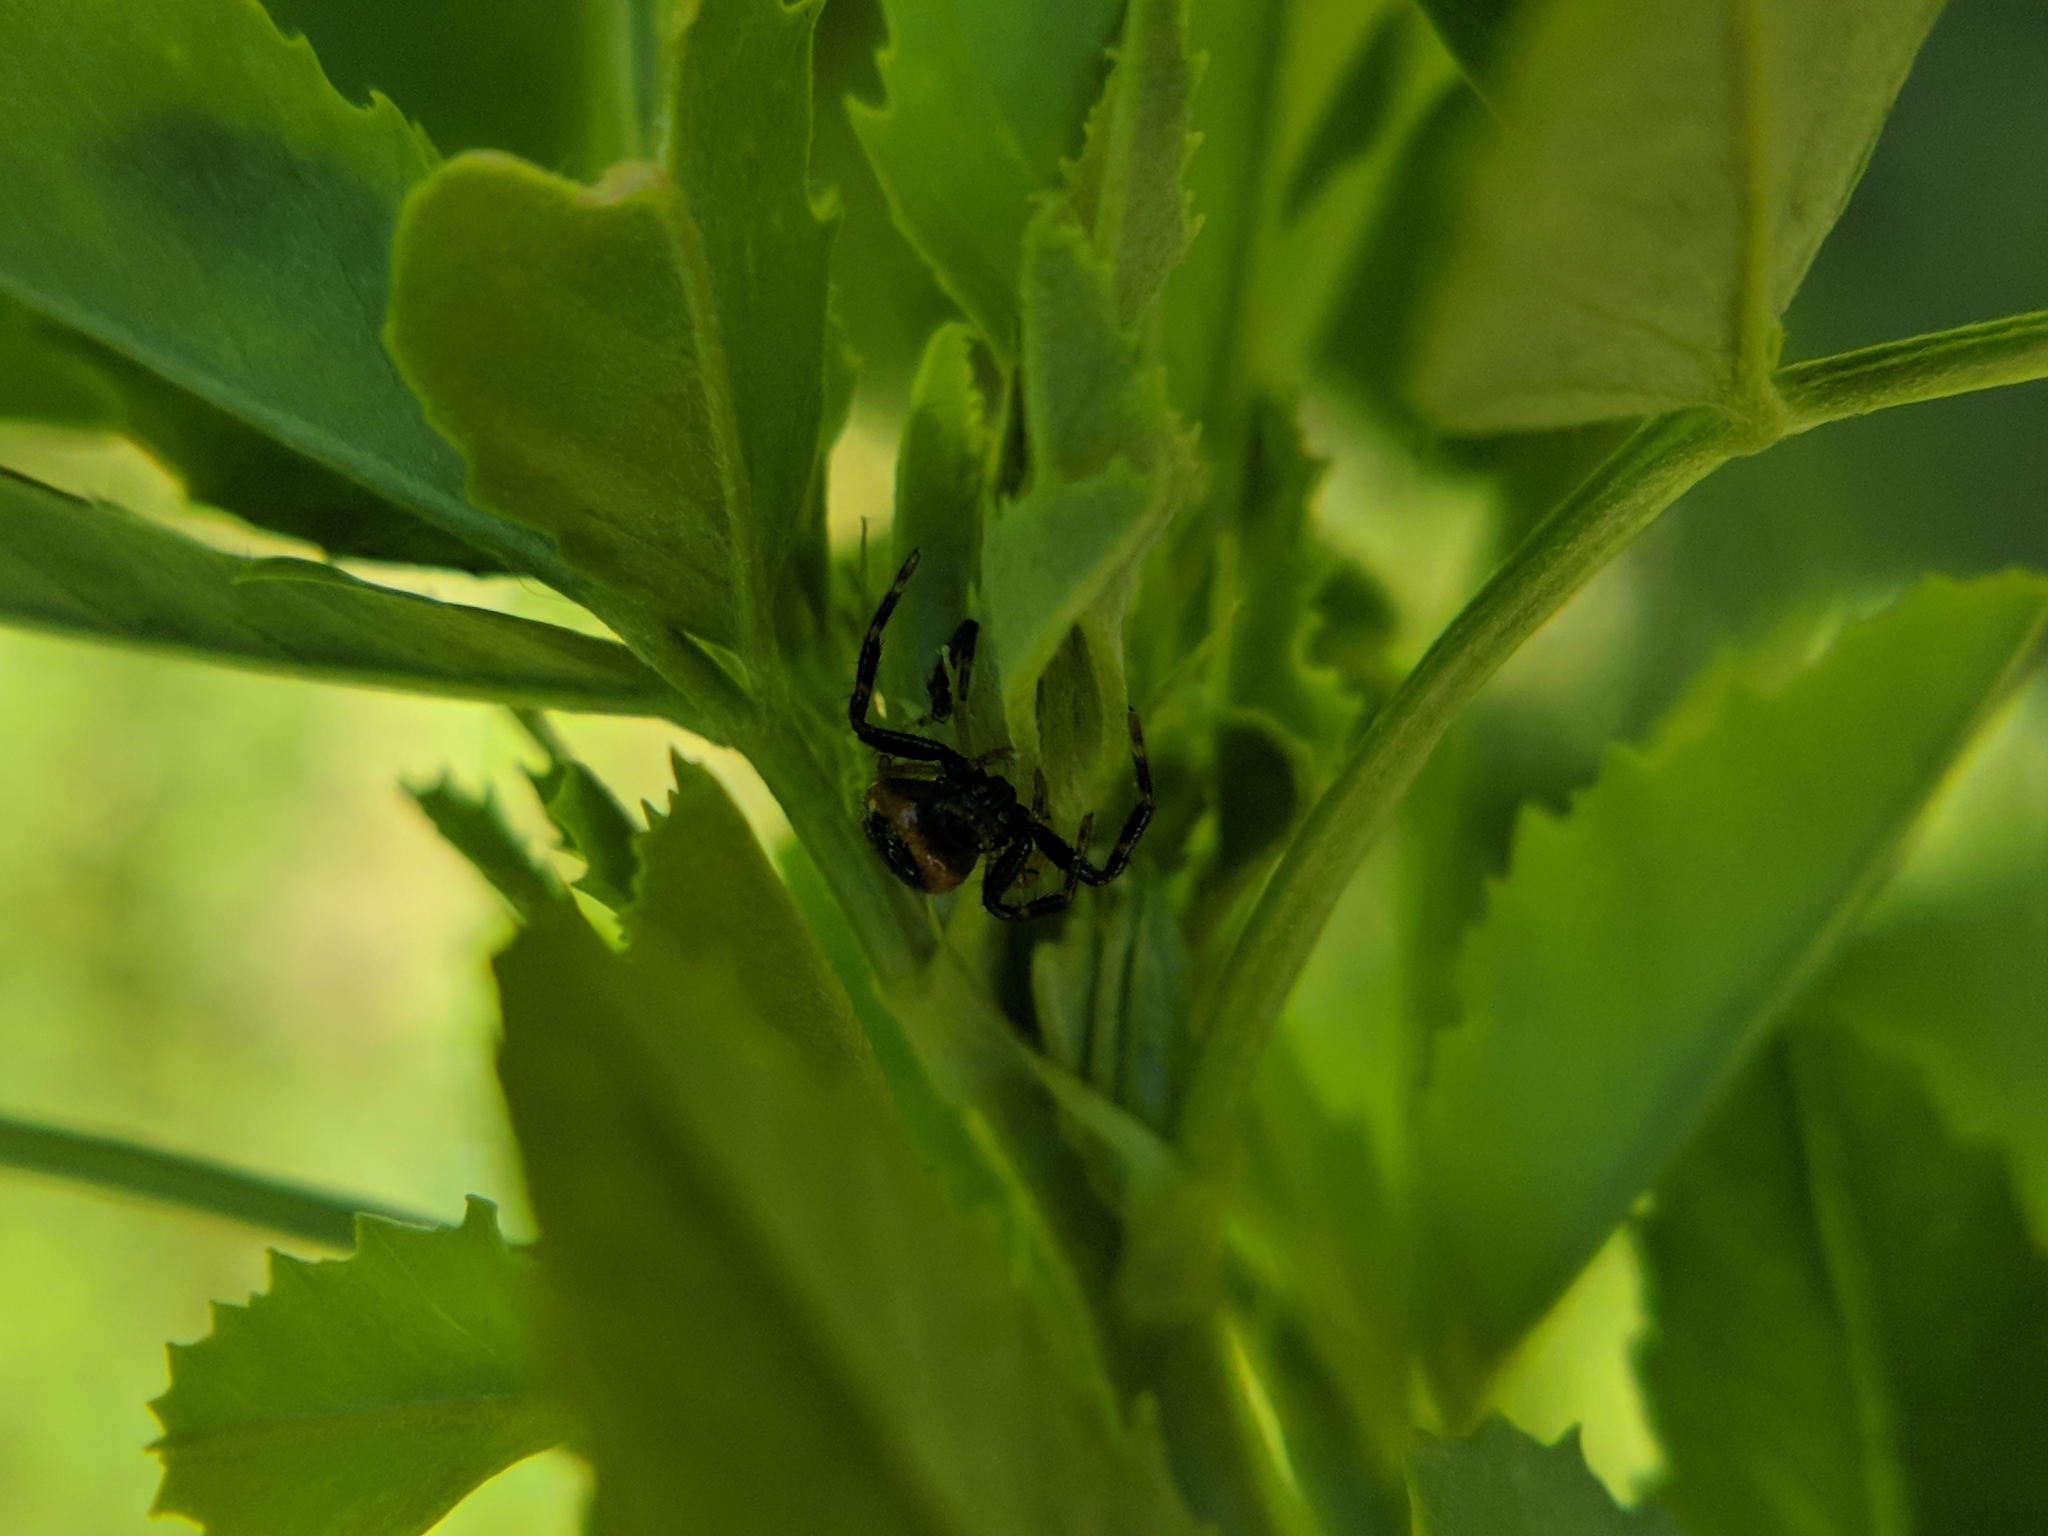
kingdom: Animalia
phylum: Arthropoda
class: Arachnida
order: Araneae
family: Thomisidae
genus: Synema
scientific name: Synema globosum
